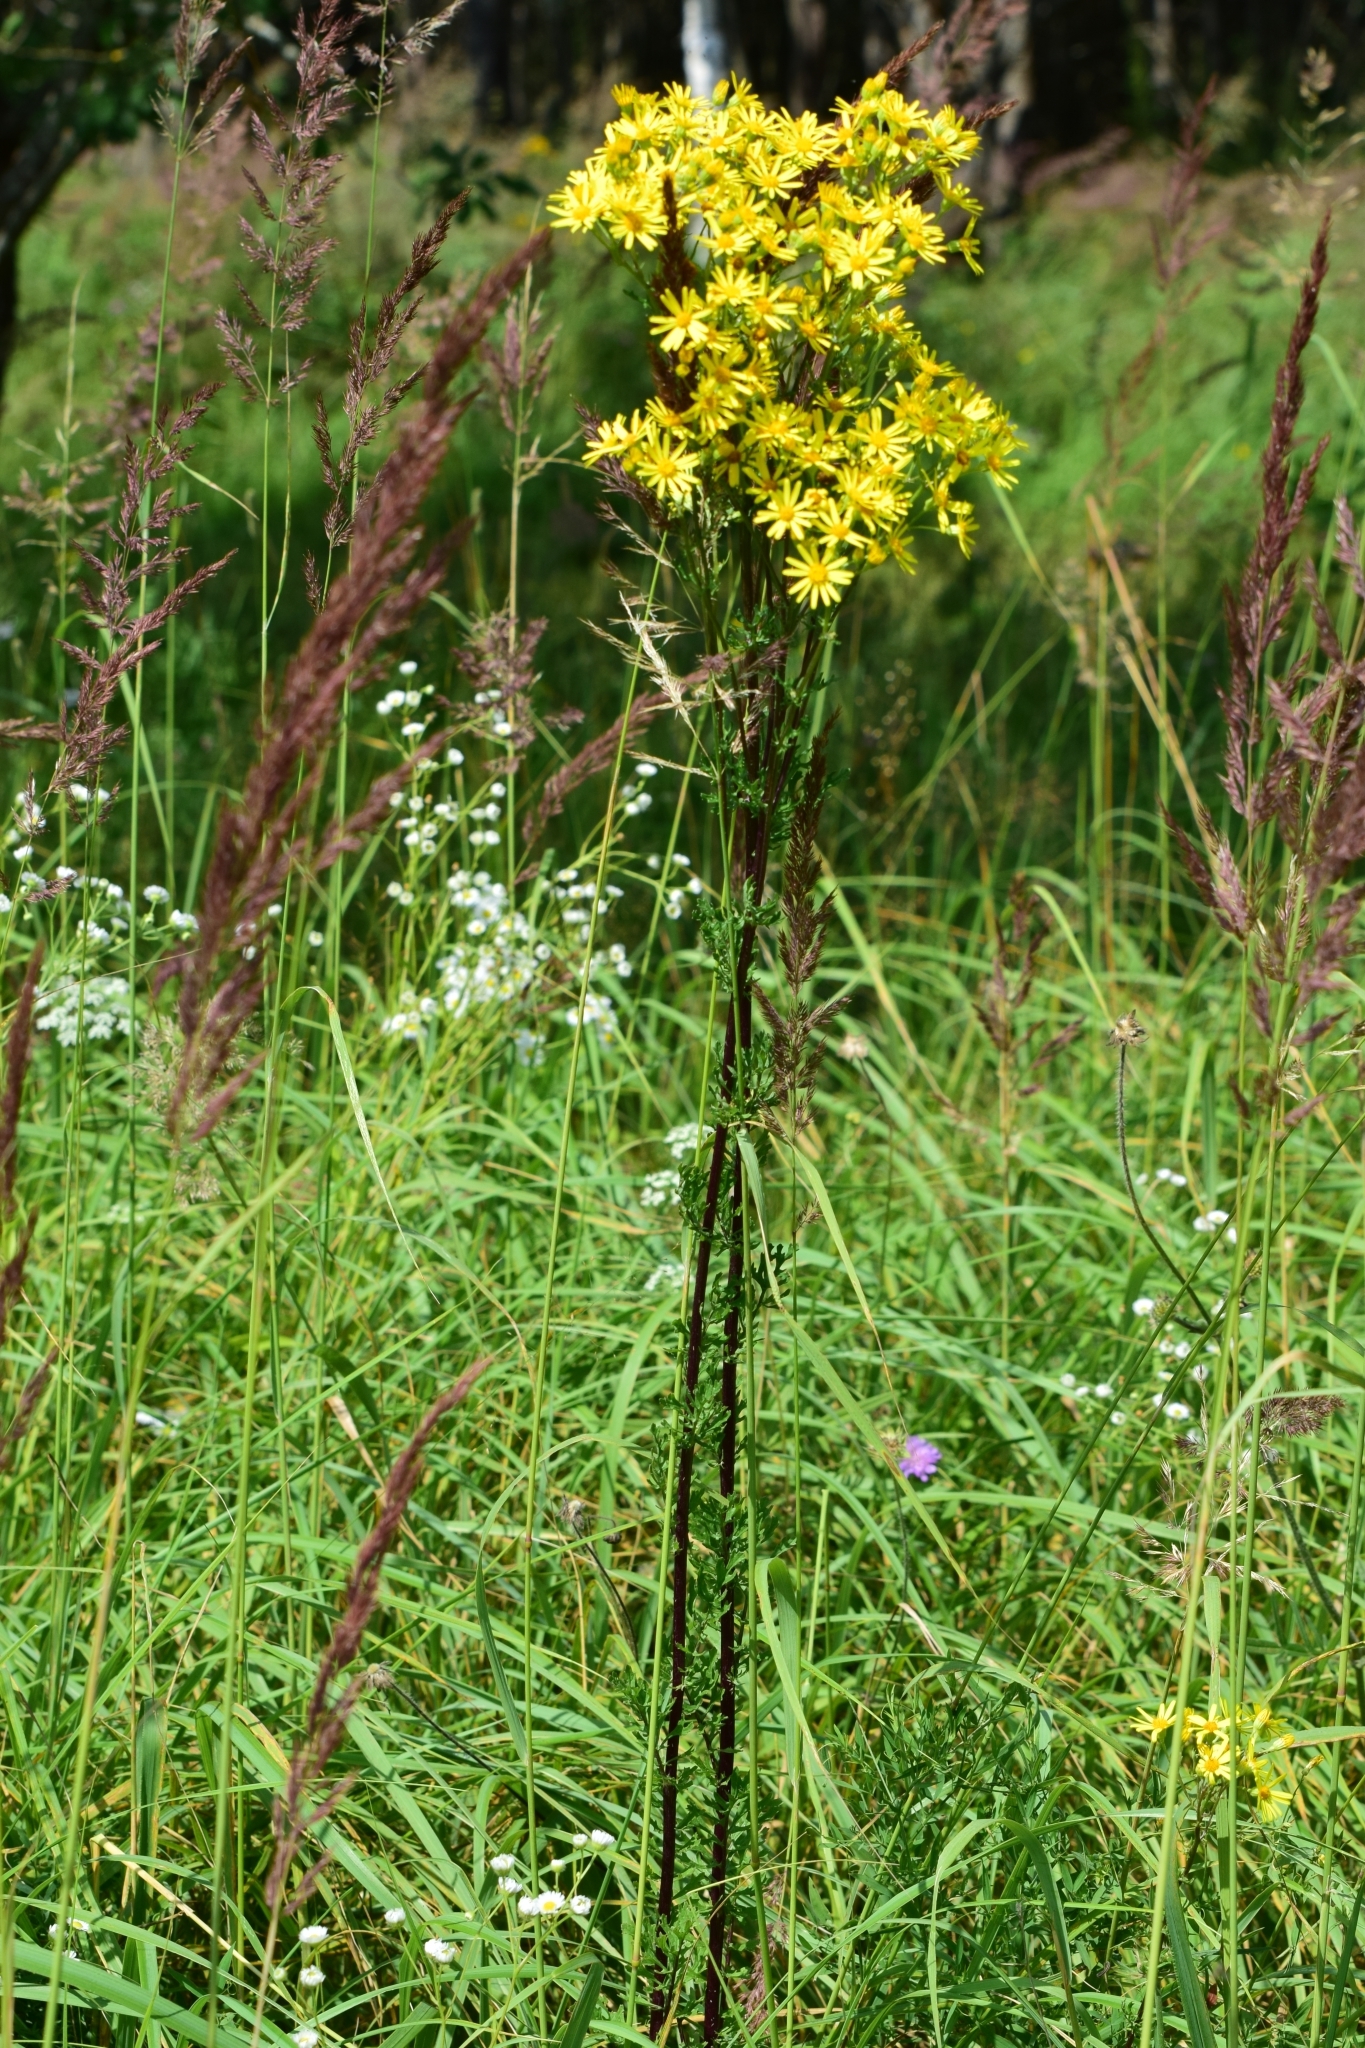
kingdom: Plantae
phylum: Tracheophyta
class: Magnoliopsida
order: Asterales
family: Asteraceae
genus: Jacobaea
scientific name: Jacobaea vulgaris
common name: Stinking willie
